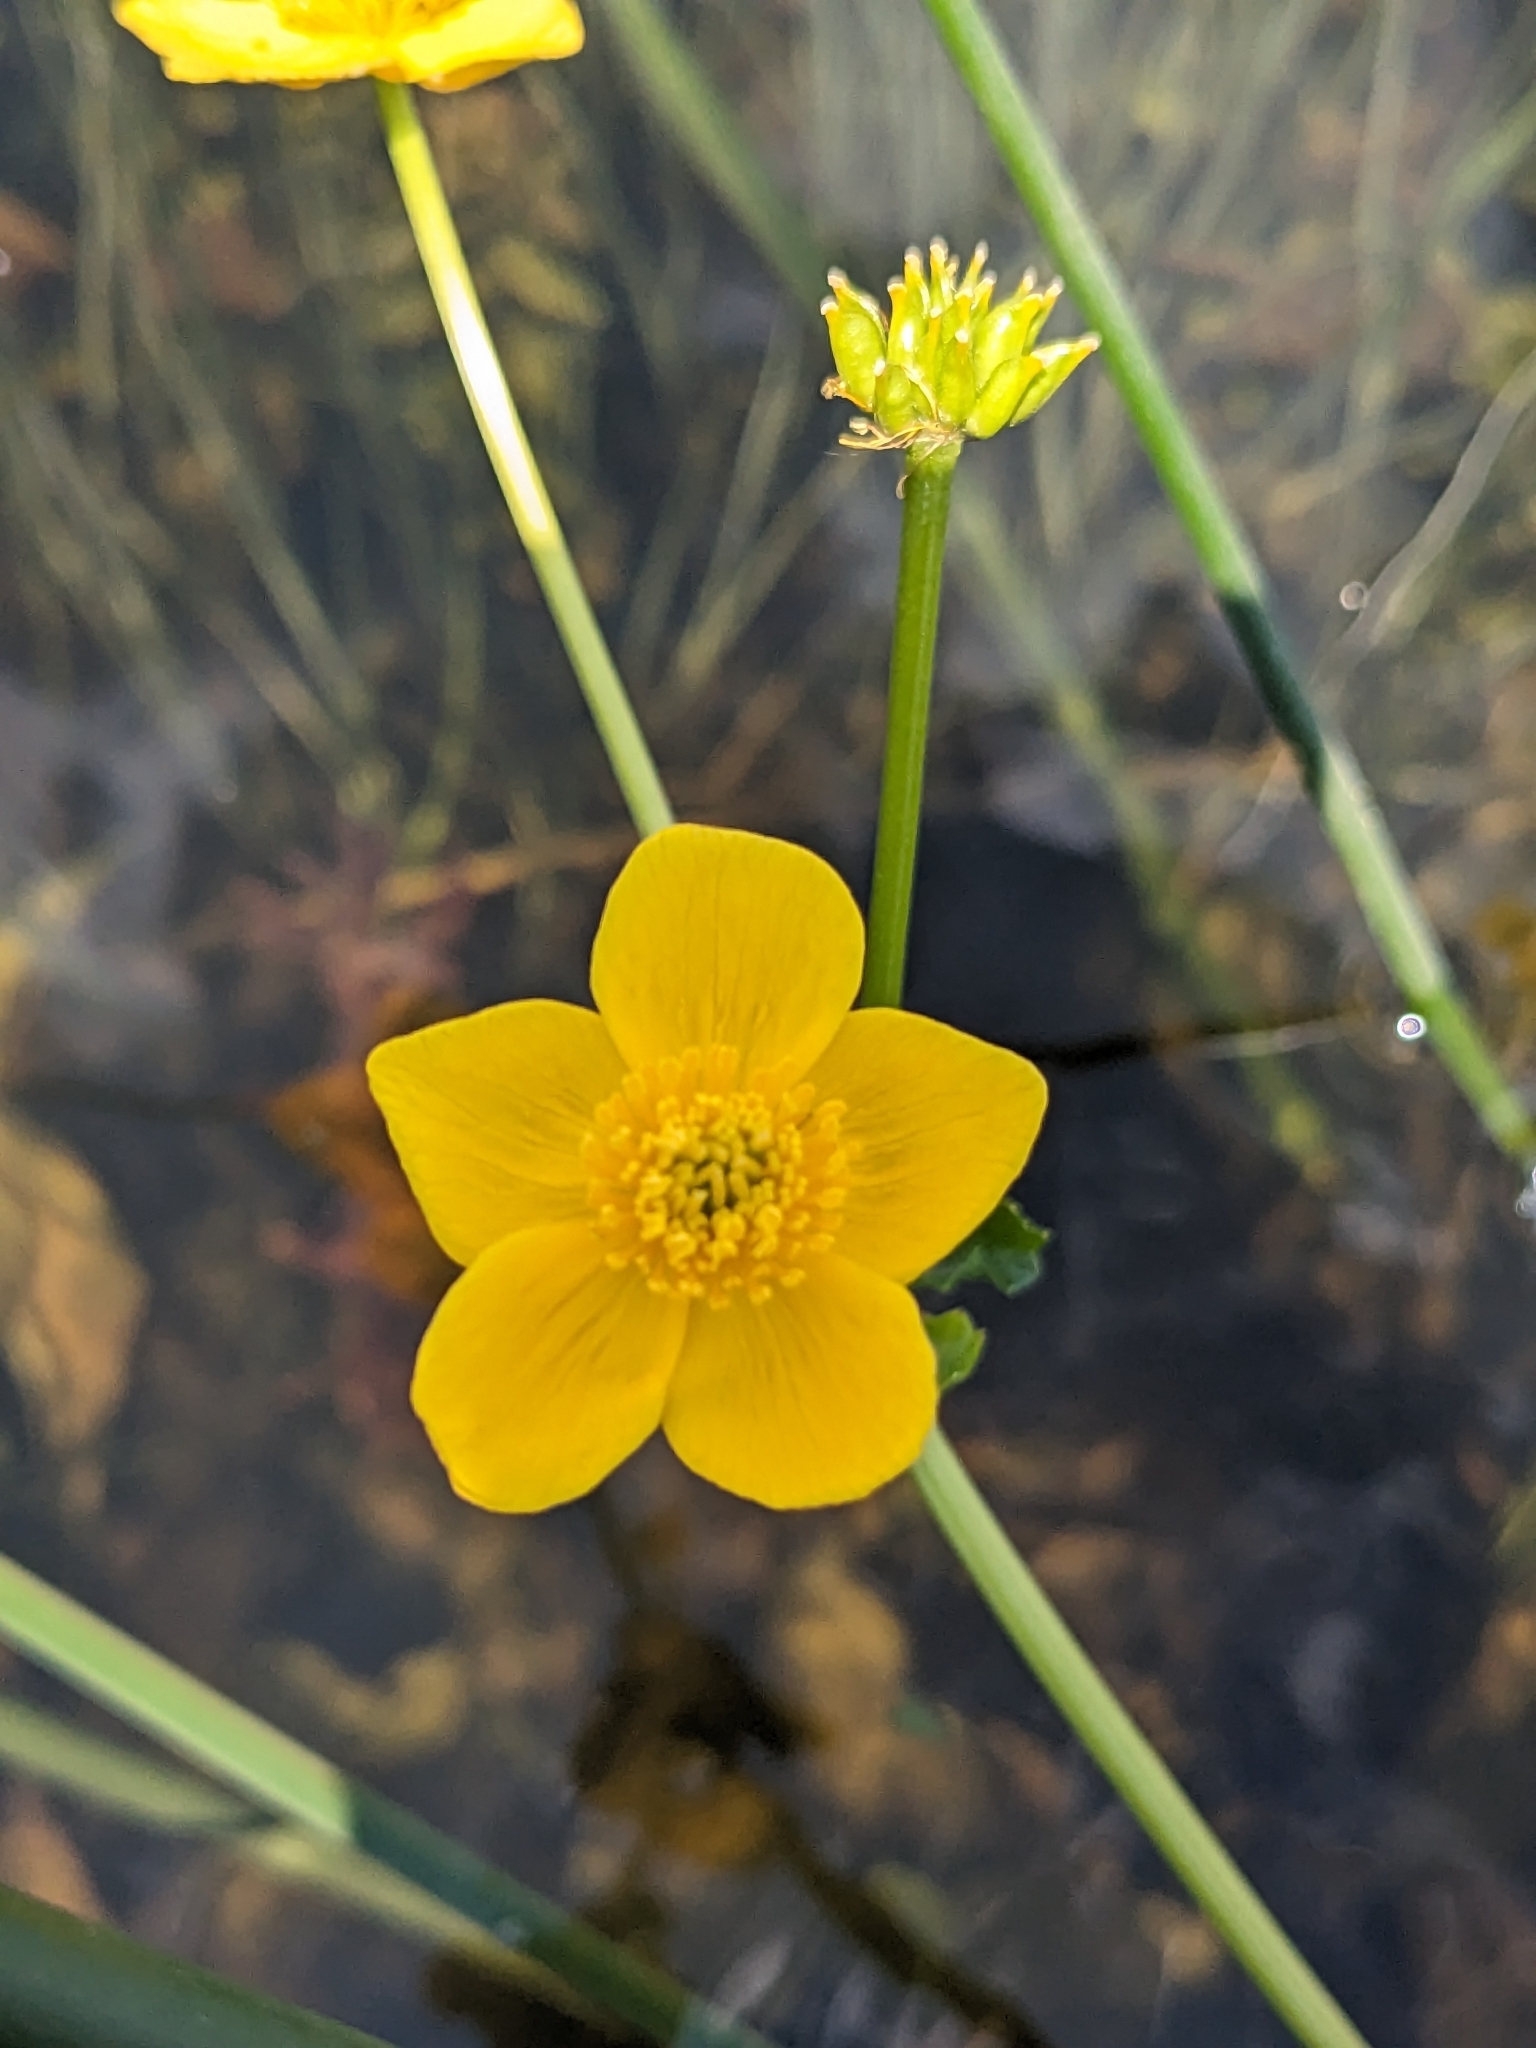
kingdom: Plantae
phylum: Tracheophyta
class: Magnoliopsida
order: Ranunculales
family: Ranunculaceae
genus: Caltha
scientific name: Caltha palustris
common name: Marsh marigold
